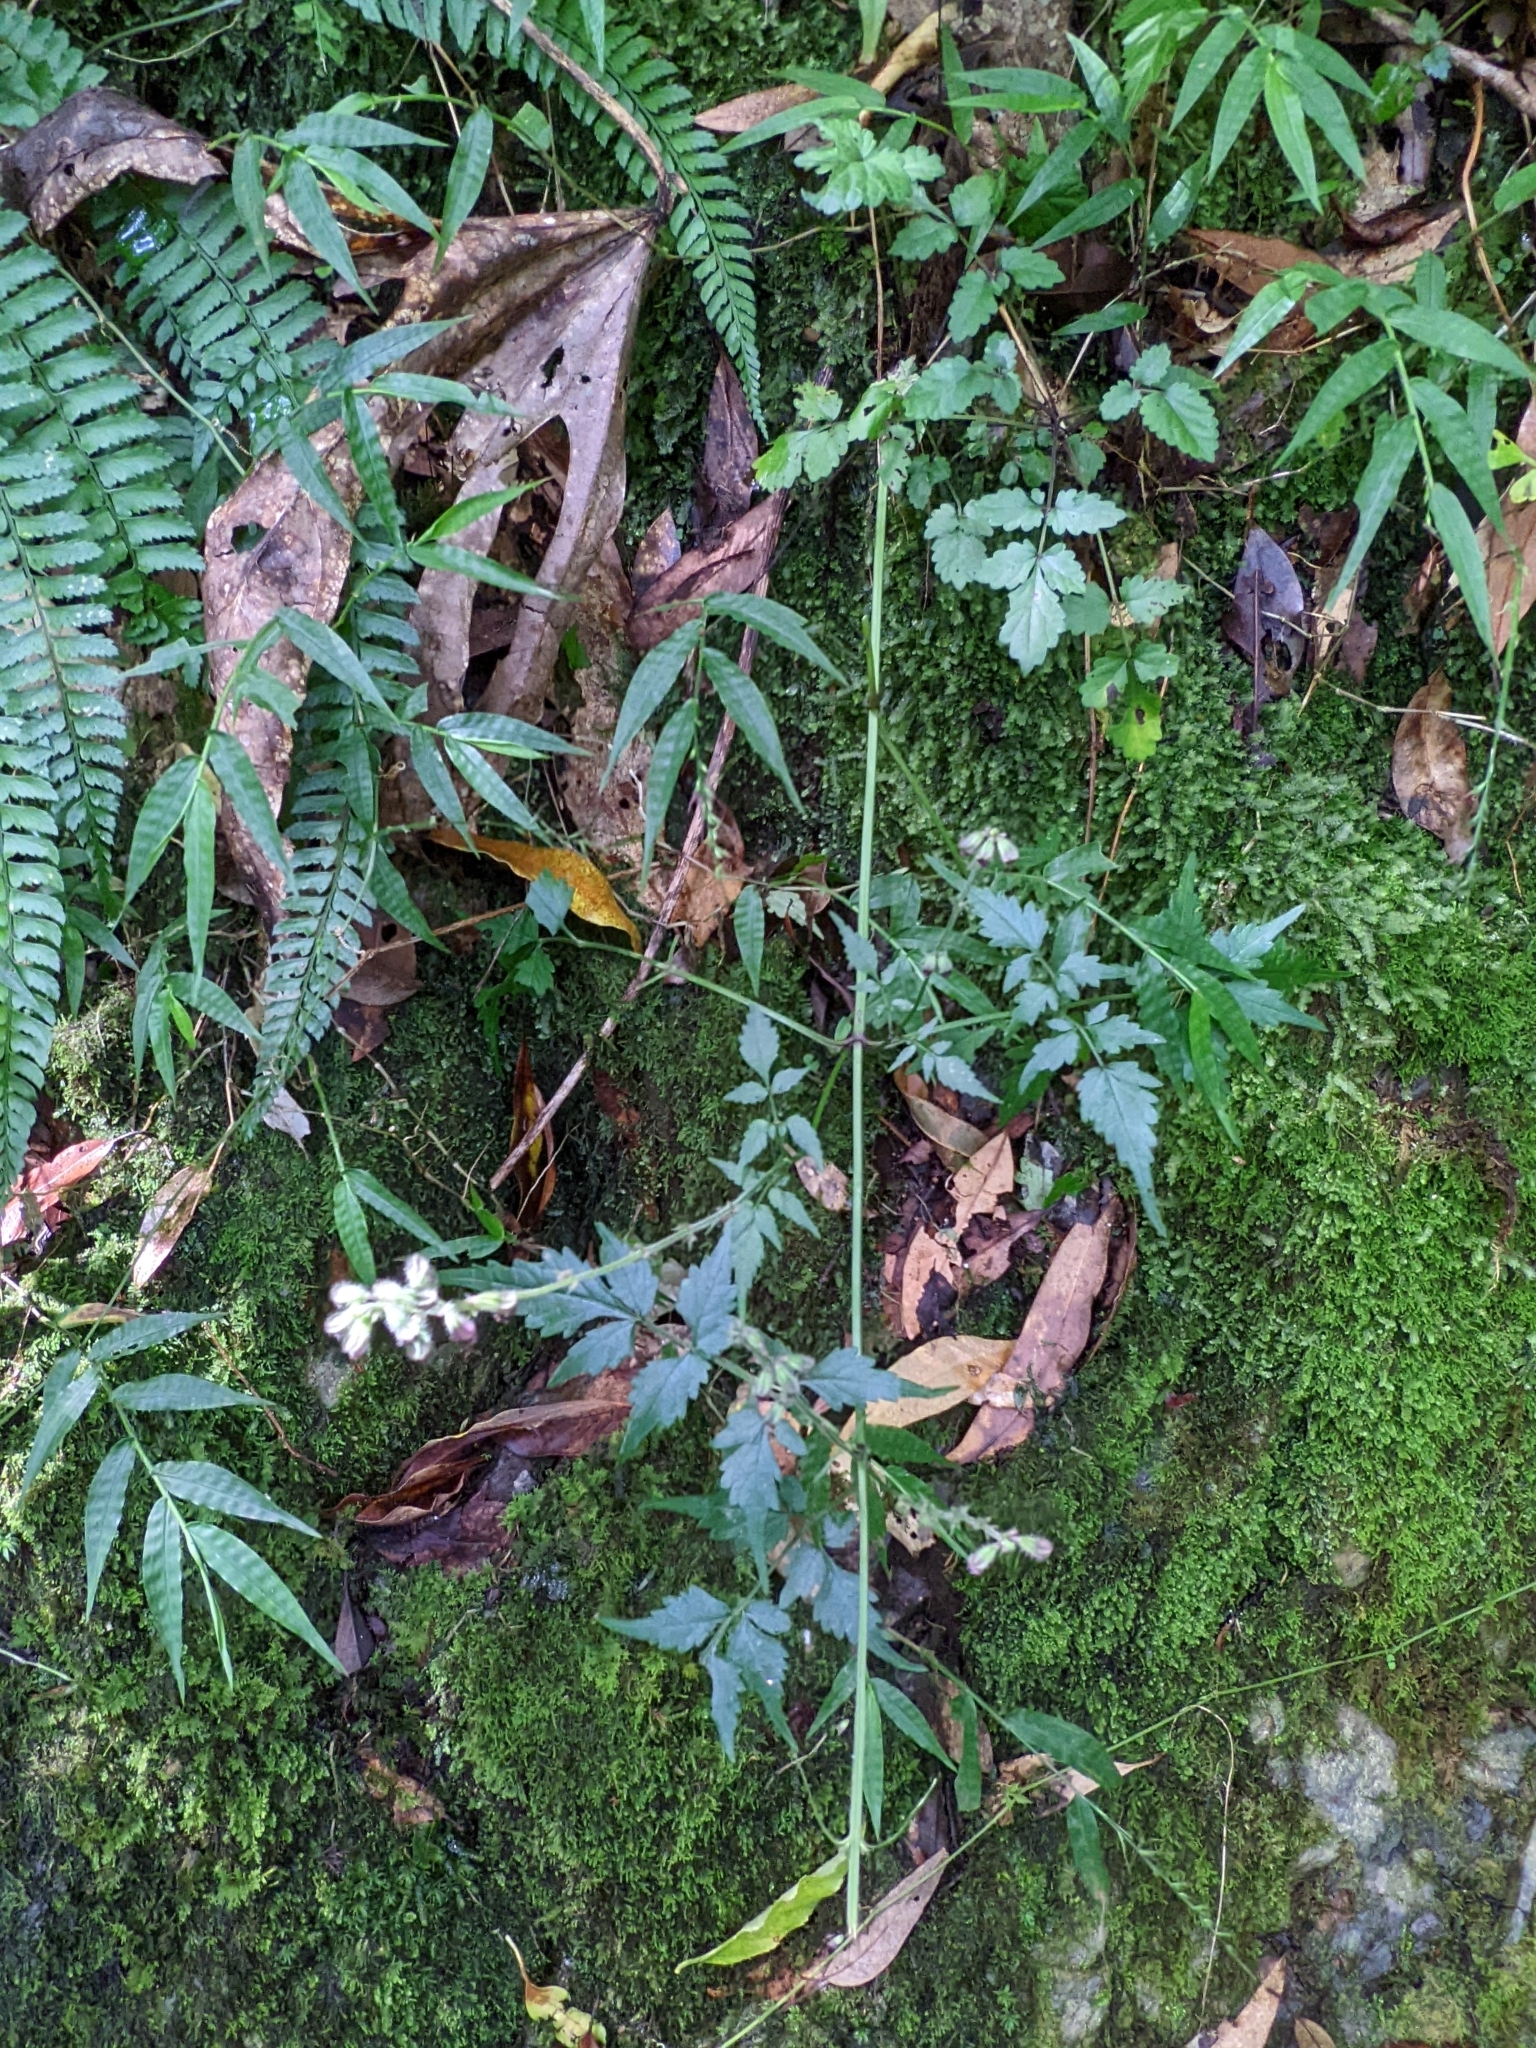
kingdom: Plantae
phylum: Tracheophyta
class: Magnoliopsida
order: Lamiales
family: Lamiaceae
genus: Salvia
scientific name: Salvia japonica
